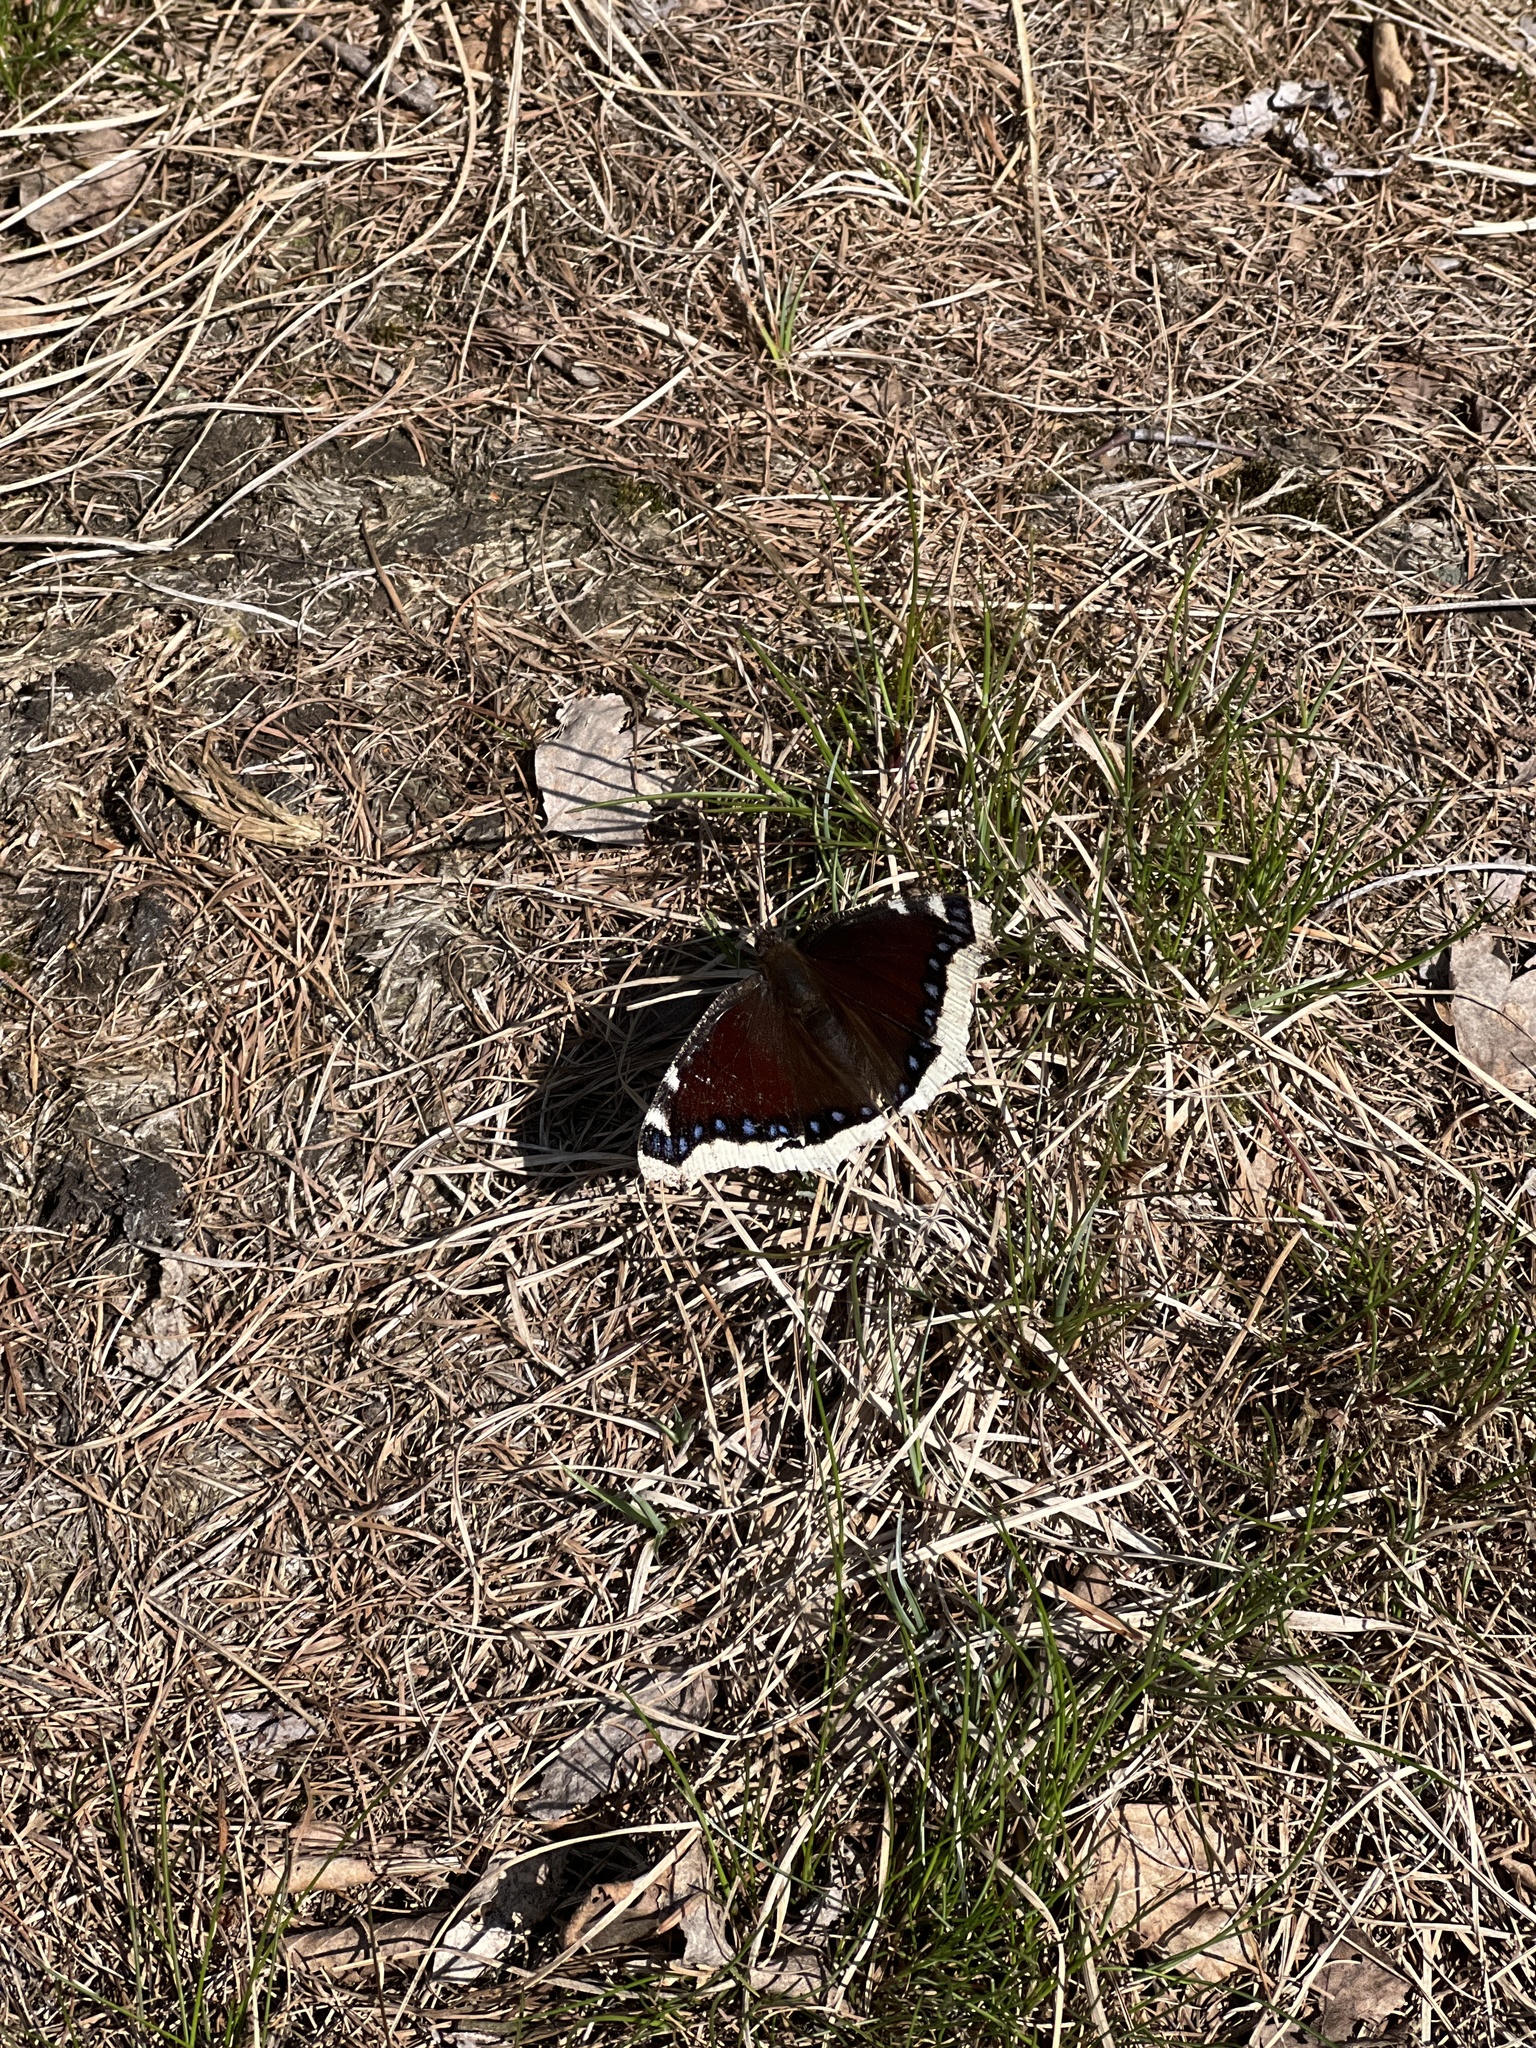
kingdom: Animalia
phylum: Arthropoda
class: Insecta
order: Lepidoptera
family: Nymphalidae
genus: Nymphalis
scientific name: Nymphalis antiopa
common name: Camberwell beauty
